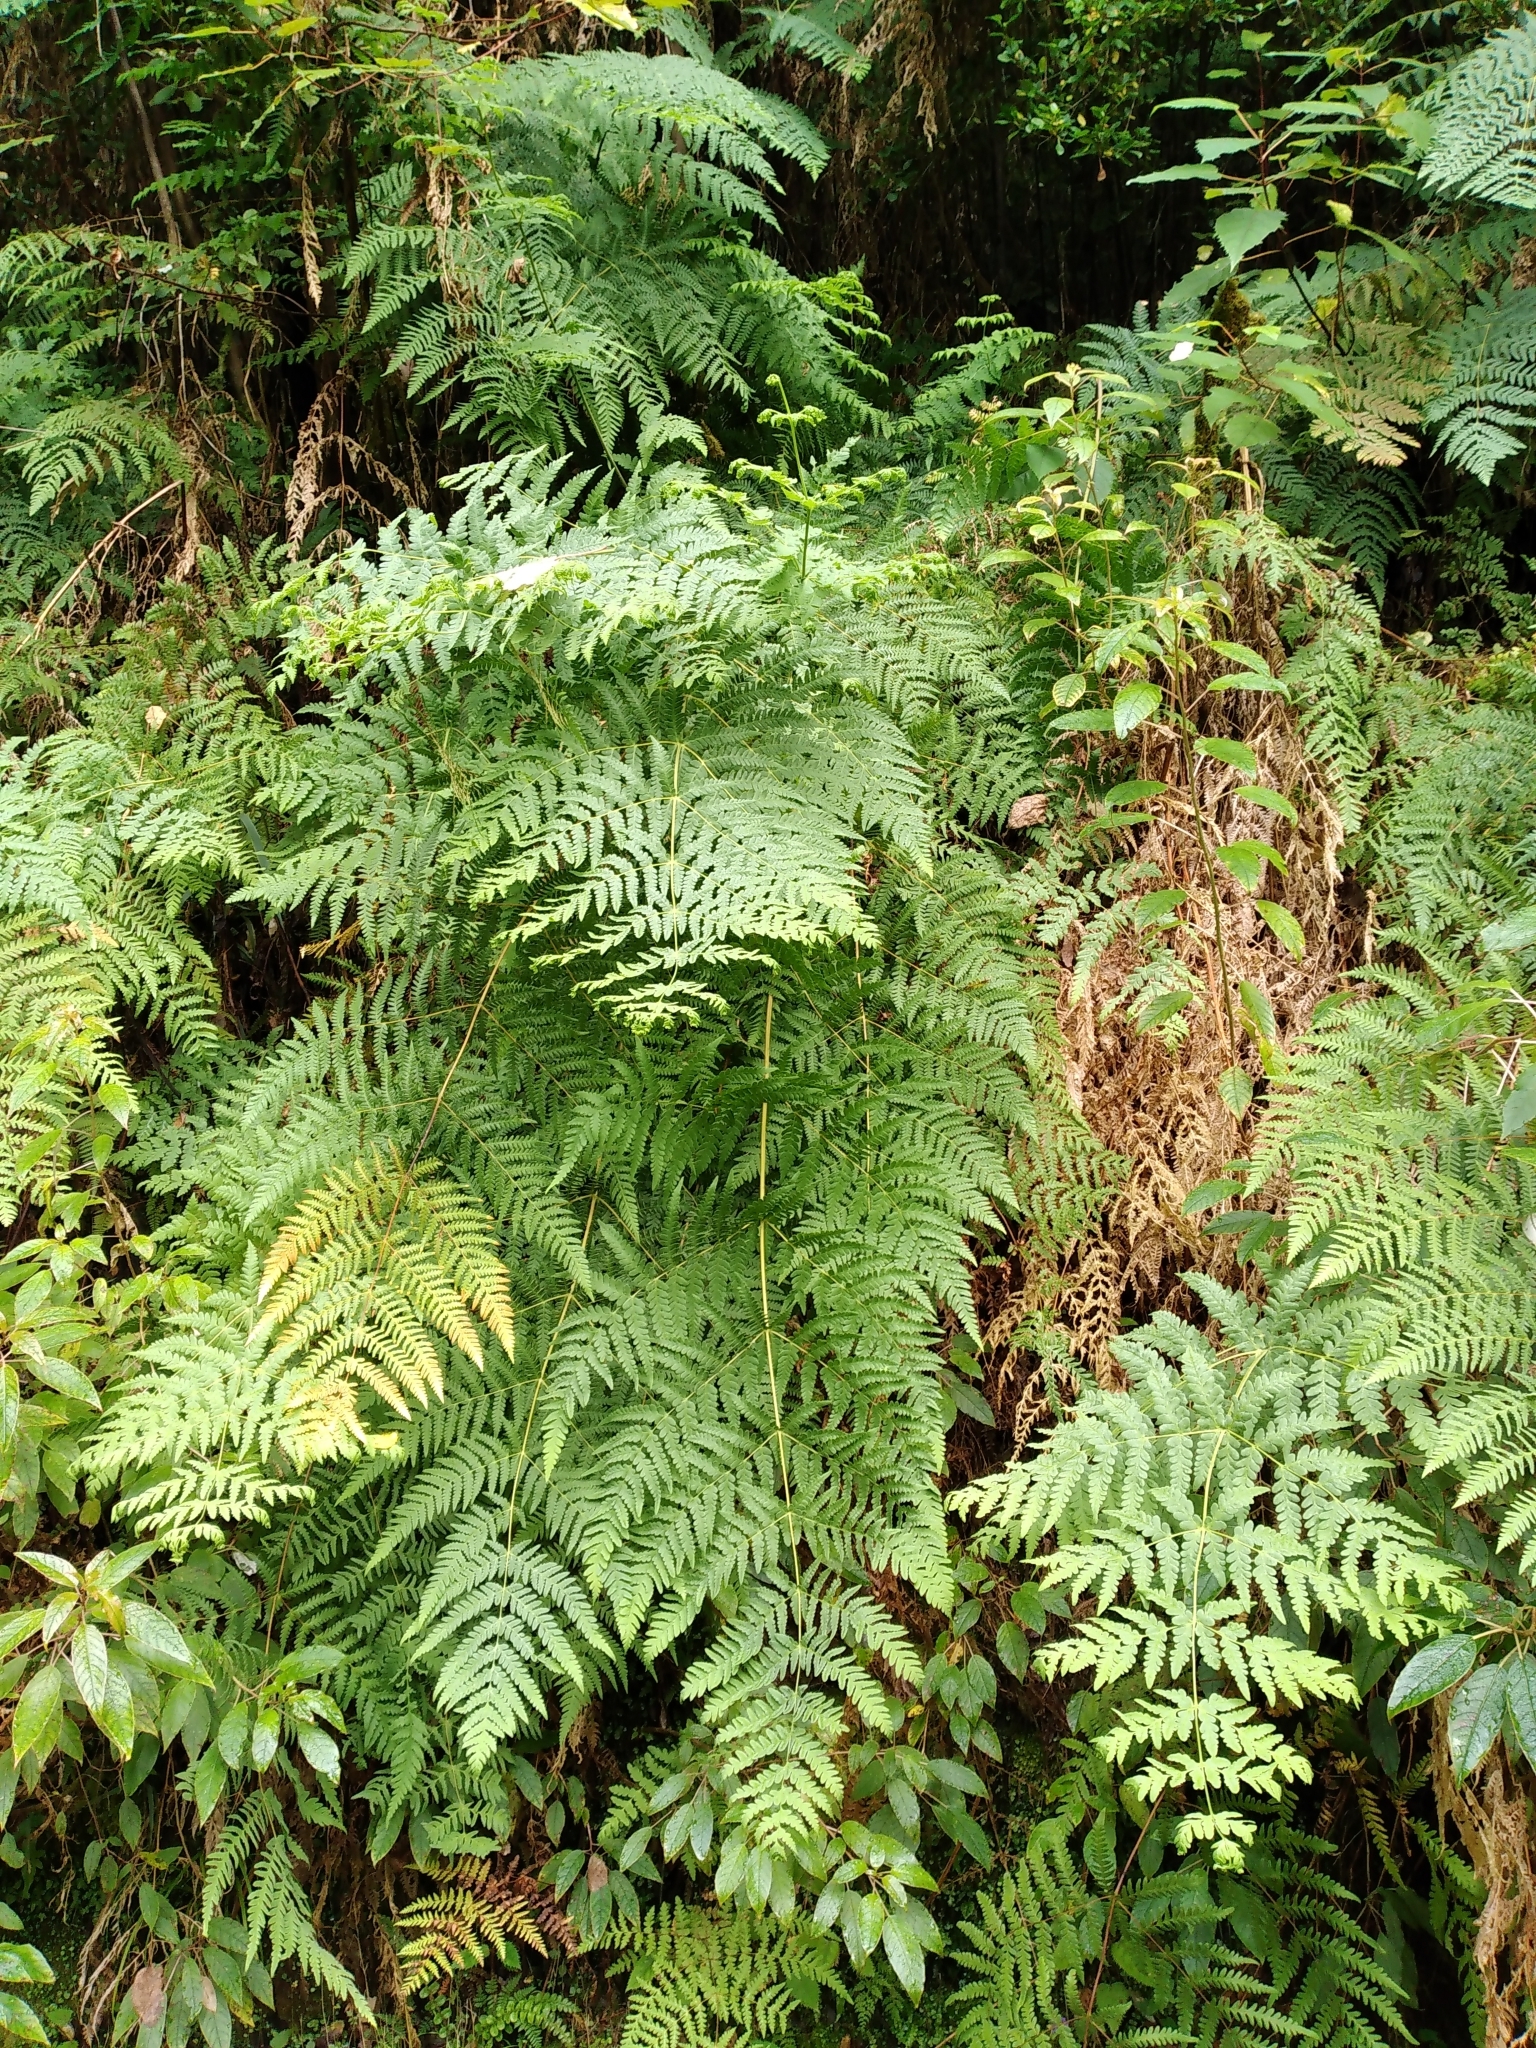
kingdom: Plantae
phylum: Tracheophyta
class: Polypodiopsida
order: Polypodiales
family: Dennstaedtiaceae
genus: Histiopteris
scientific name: Histiopteris incisa
